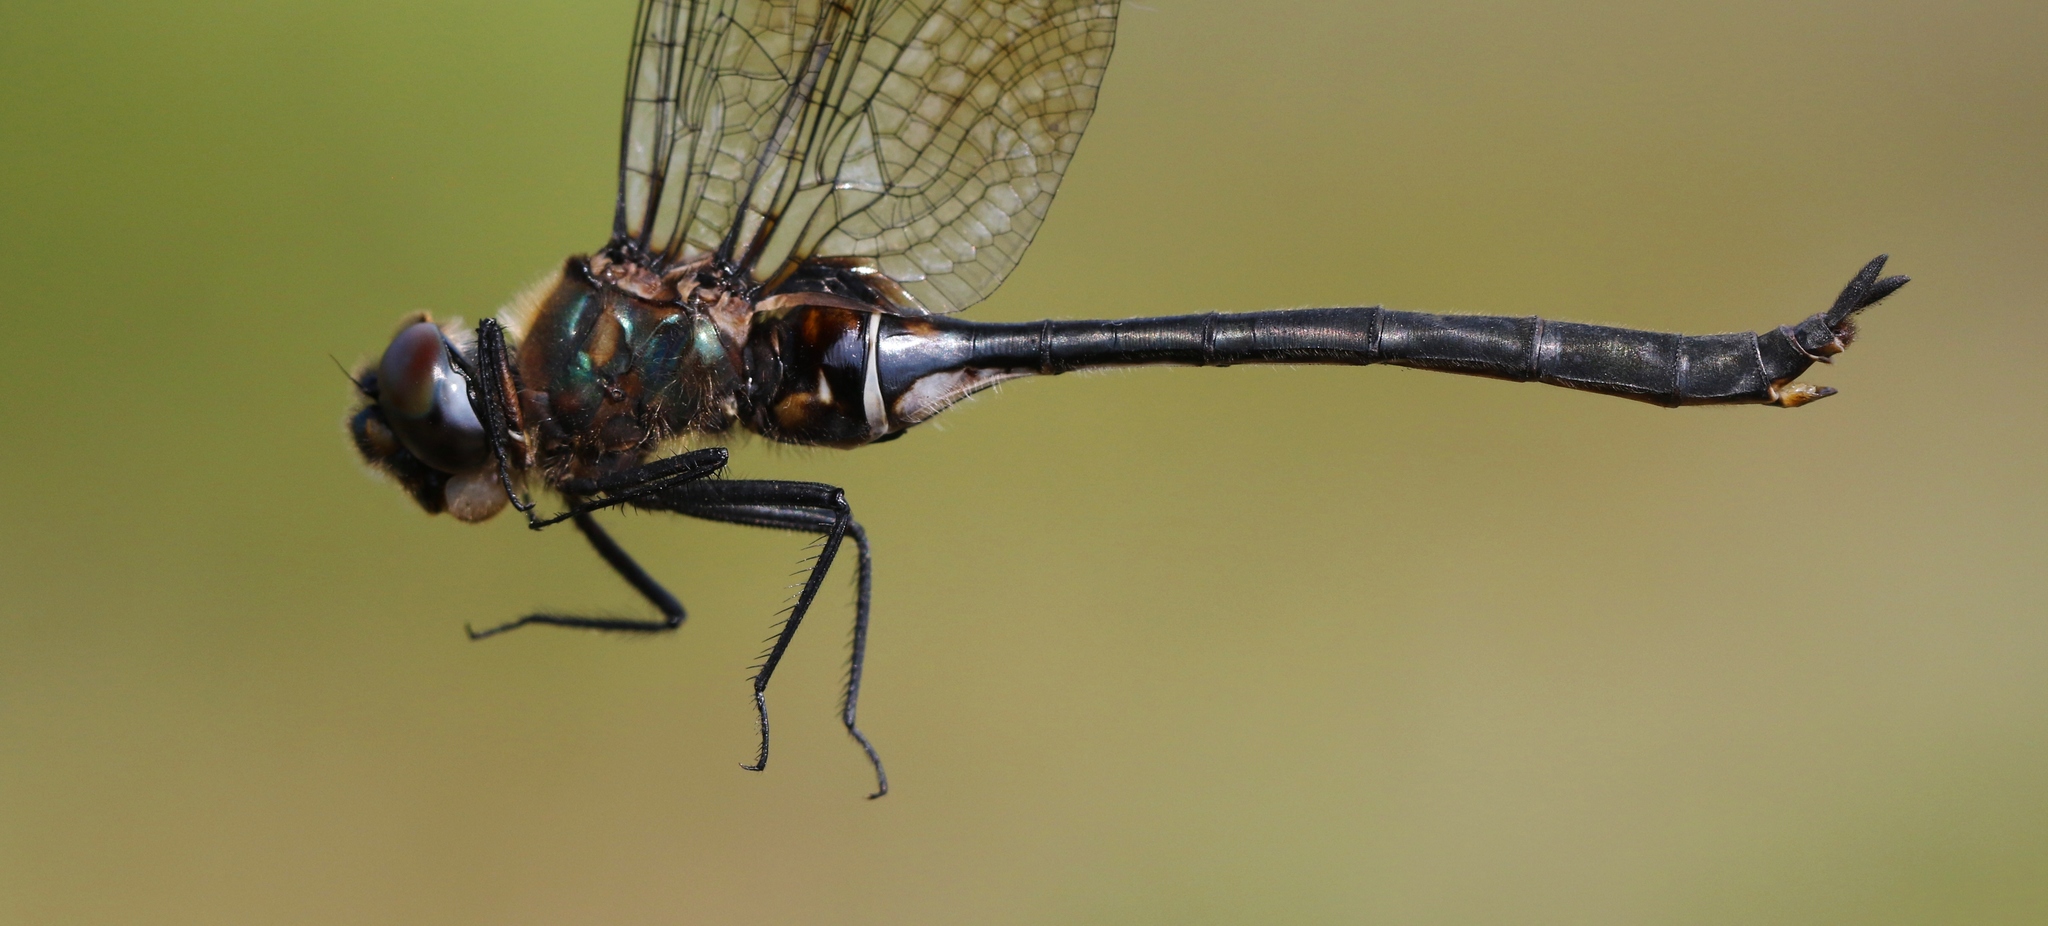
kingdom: Animalia
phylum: Arthropoda
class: Insecta
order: Odonata
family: Corduliidae
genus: Somatochlora
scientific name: Somatochlora franklini
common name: Delicate emerald
